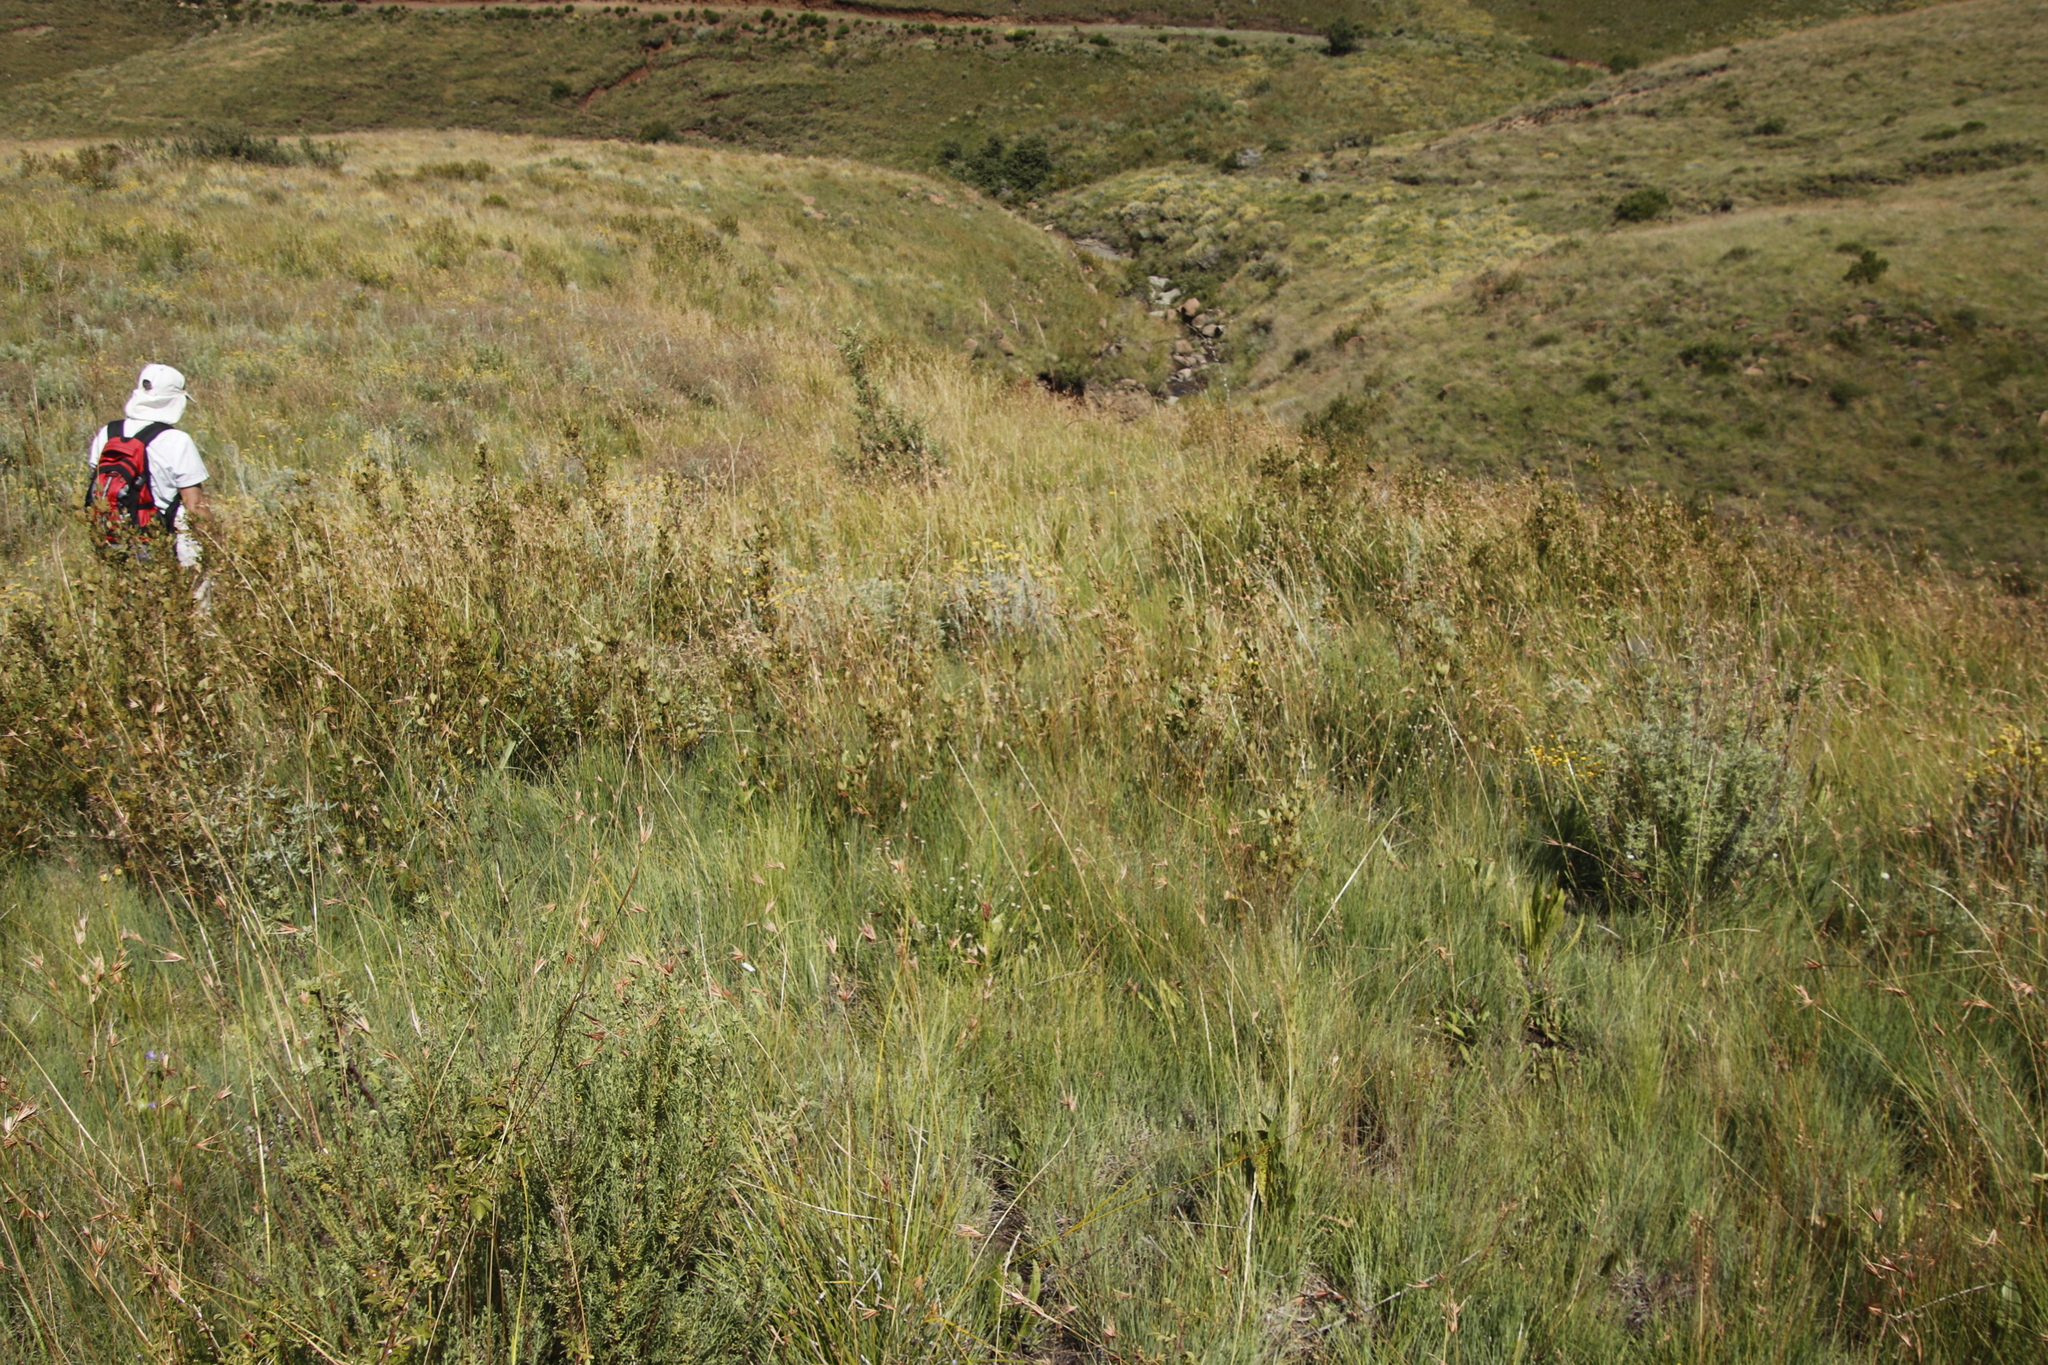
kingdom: Plantae
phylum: Tracheophyta
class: Liliopsida
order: Poales
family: Poaceae
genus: Themeda
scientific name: Themeda triandra
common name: Kangaroo grass
